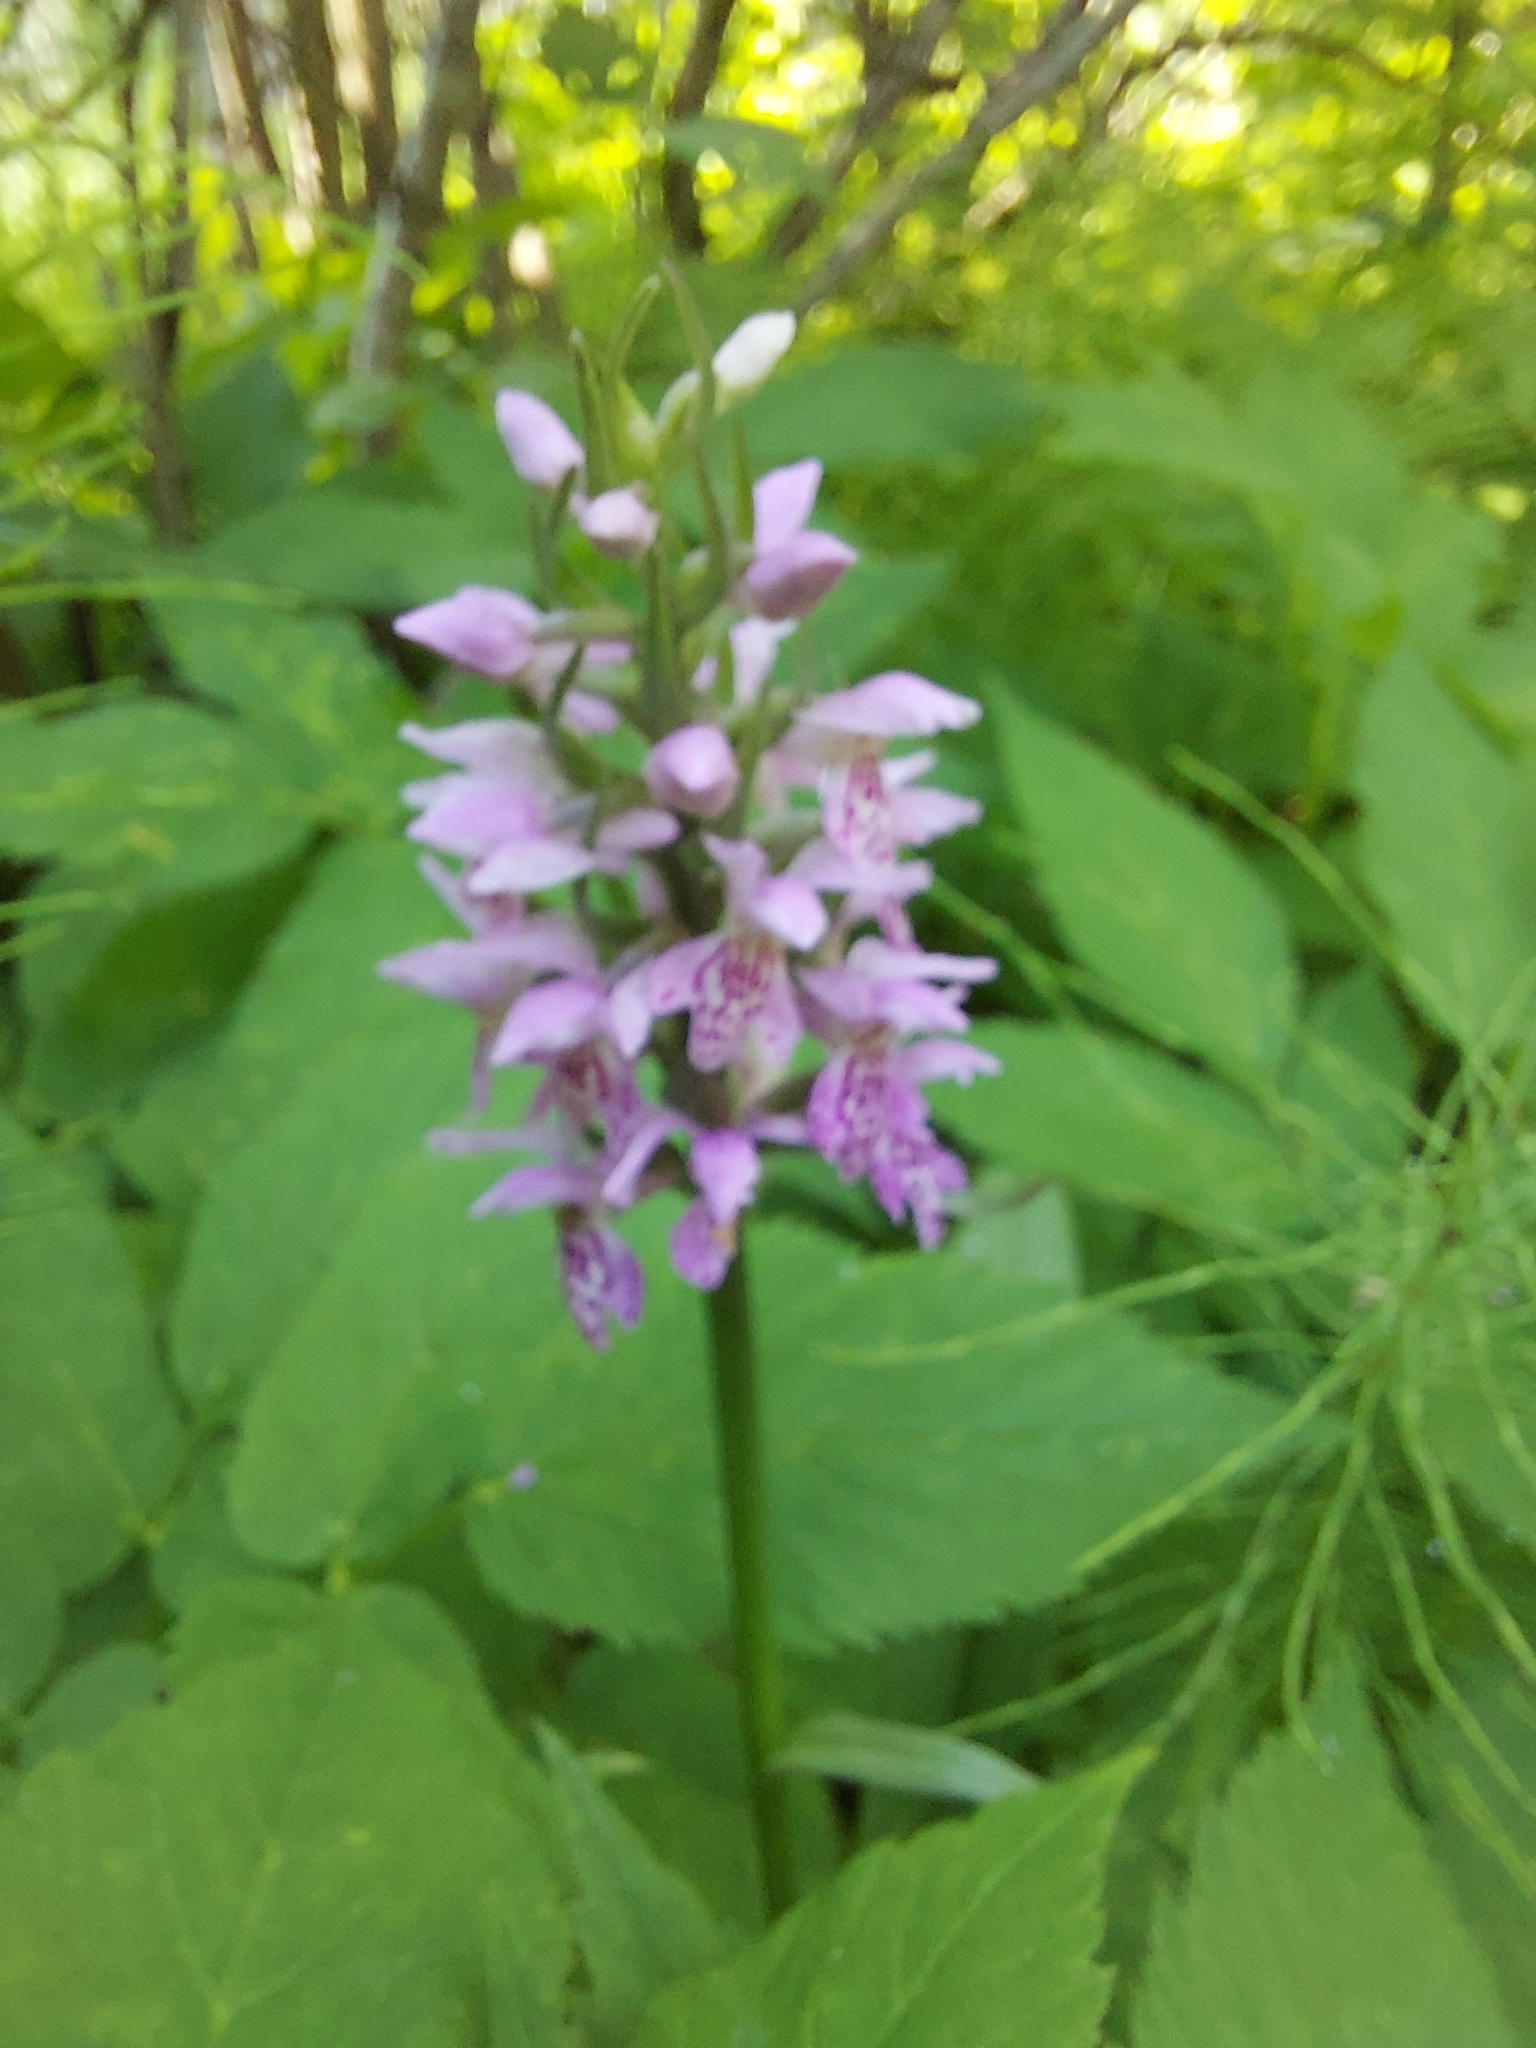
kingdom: Plantae
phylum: Tracheophyta
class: Liliopsida
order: Asparagales
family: Orchidaceae
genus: Dactylorhiza
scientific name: Dactylorhiza sibirica
